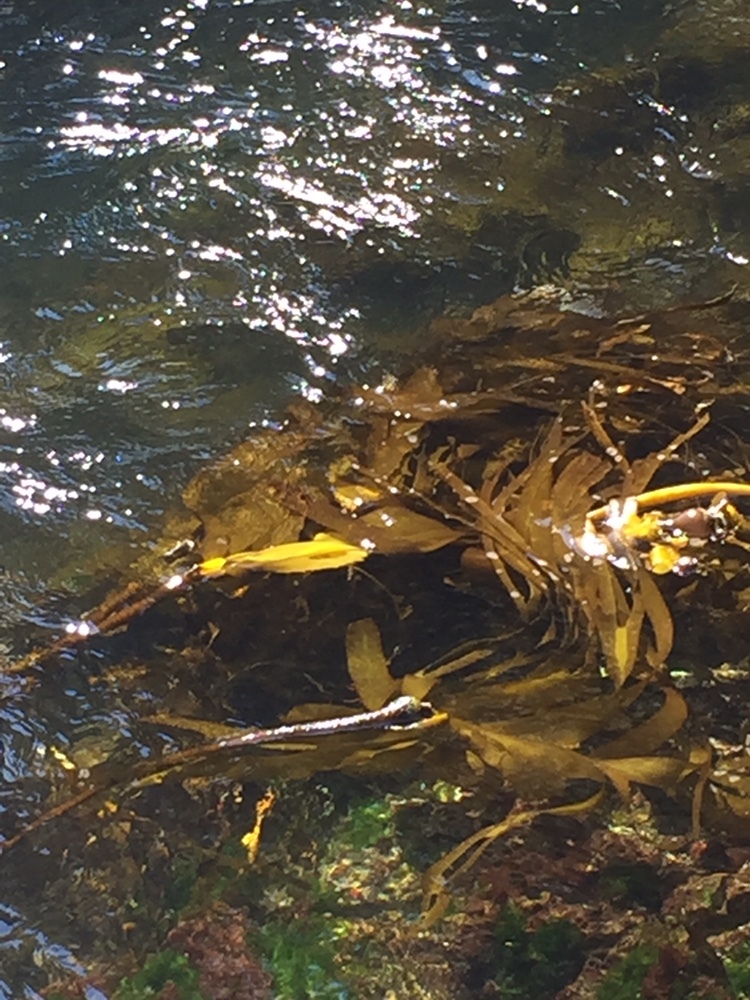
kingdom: Chromista
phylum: Ochrophyta
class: Phaeophyceae
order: Laminariales
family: Laminariaceae
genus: Nereocystis
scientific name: Nereocystis luetkeana
